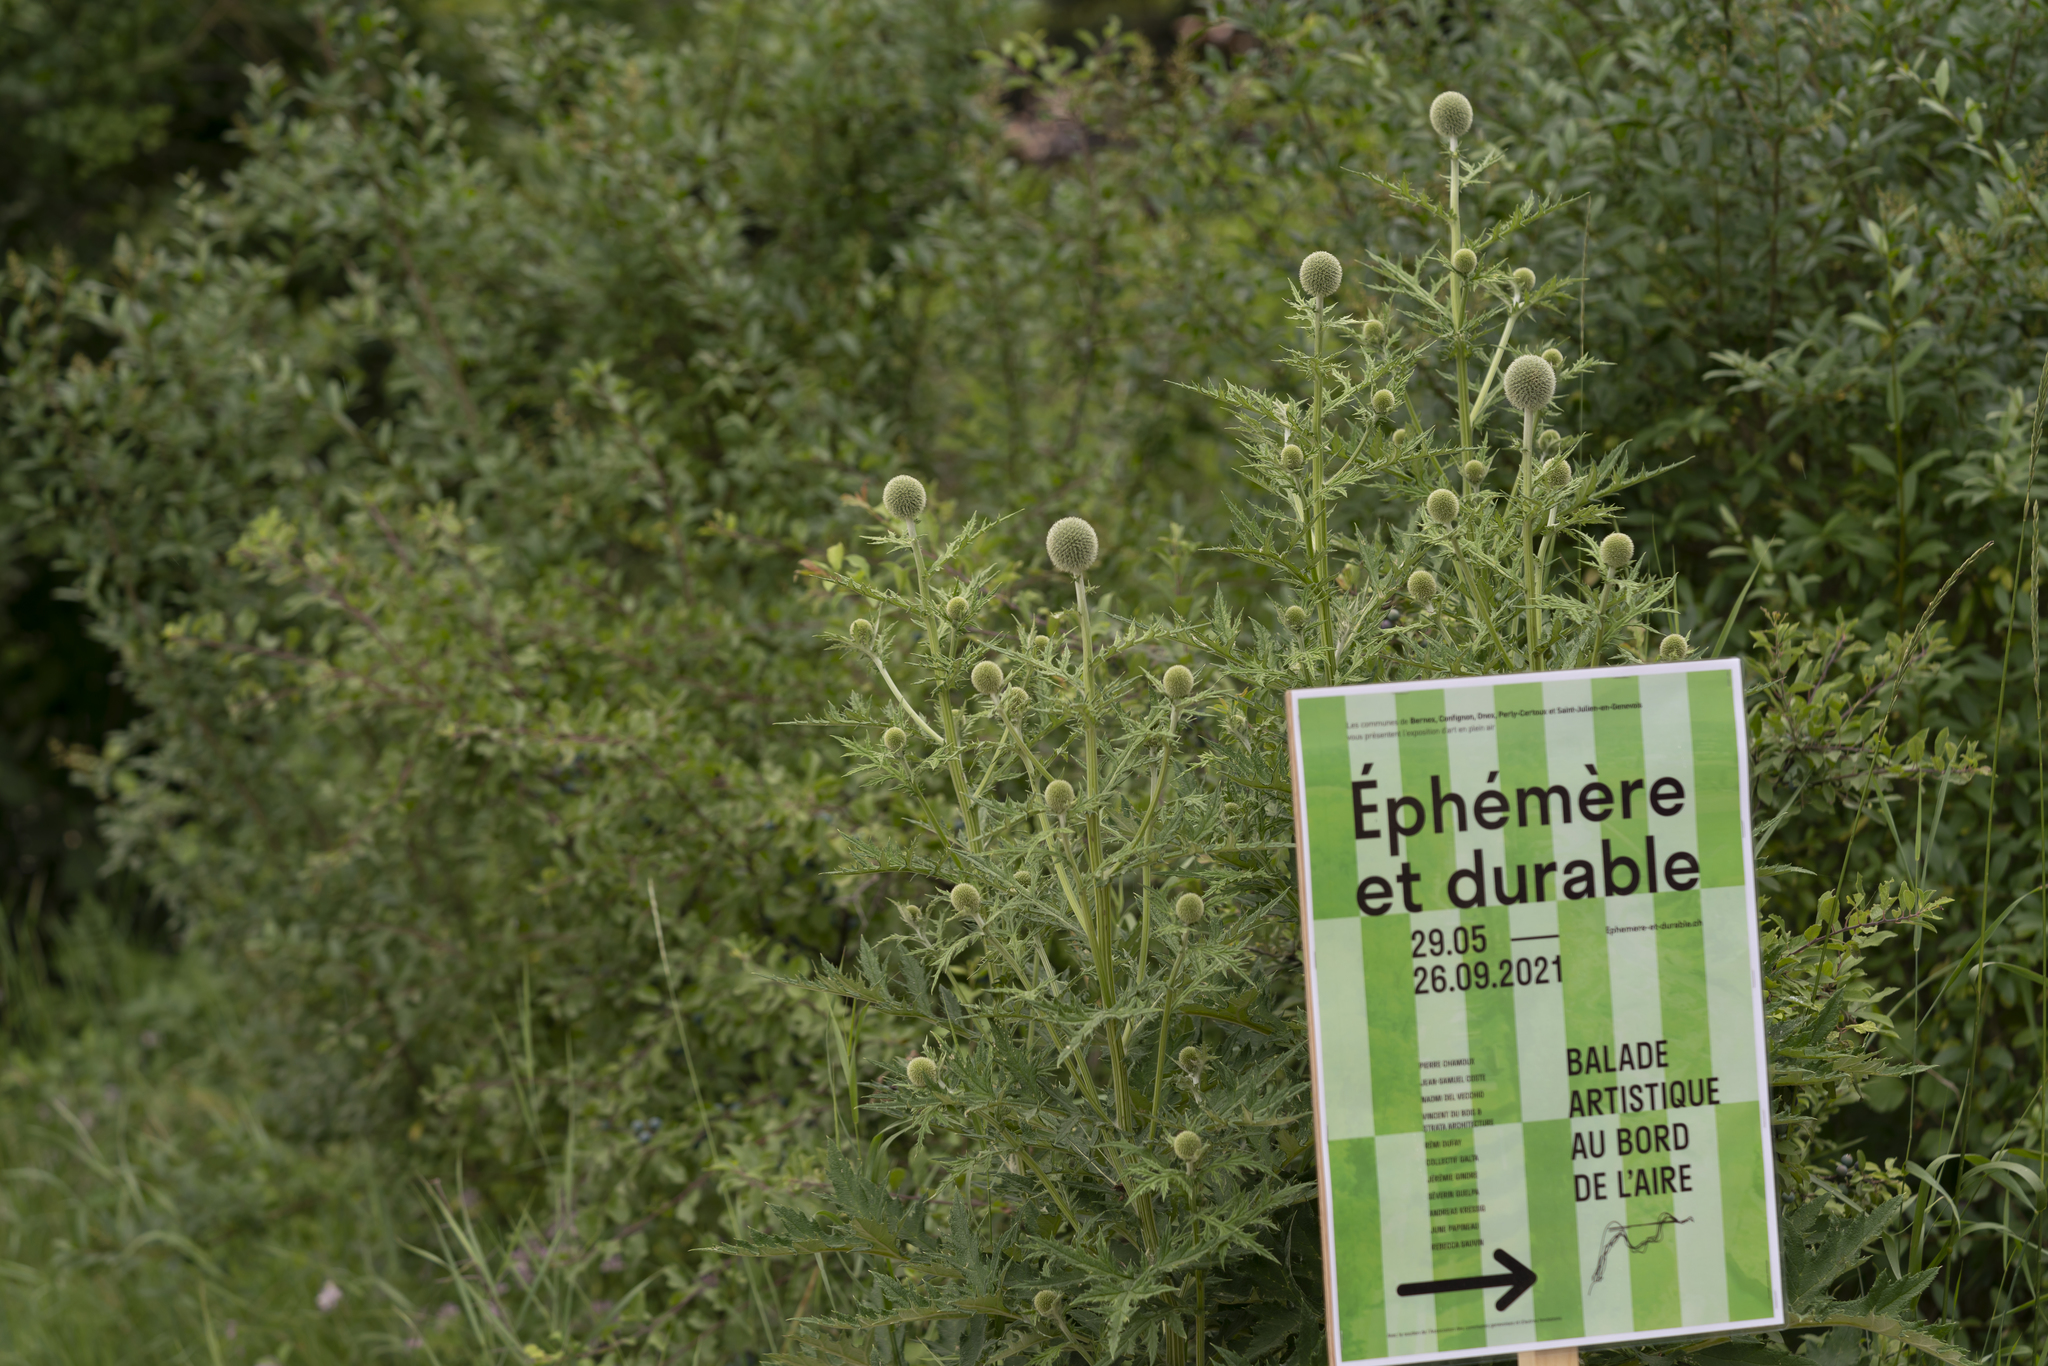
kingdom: Plantae
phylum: Tracheophyta
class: Magnoliopsida
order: Asterales
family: Asteraceae
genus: Echinops
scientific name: Echinops exaltatus
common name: Globe-thistle
